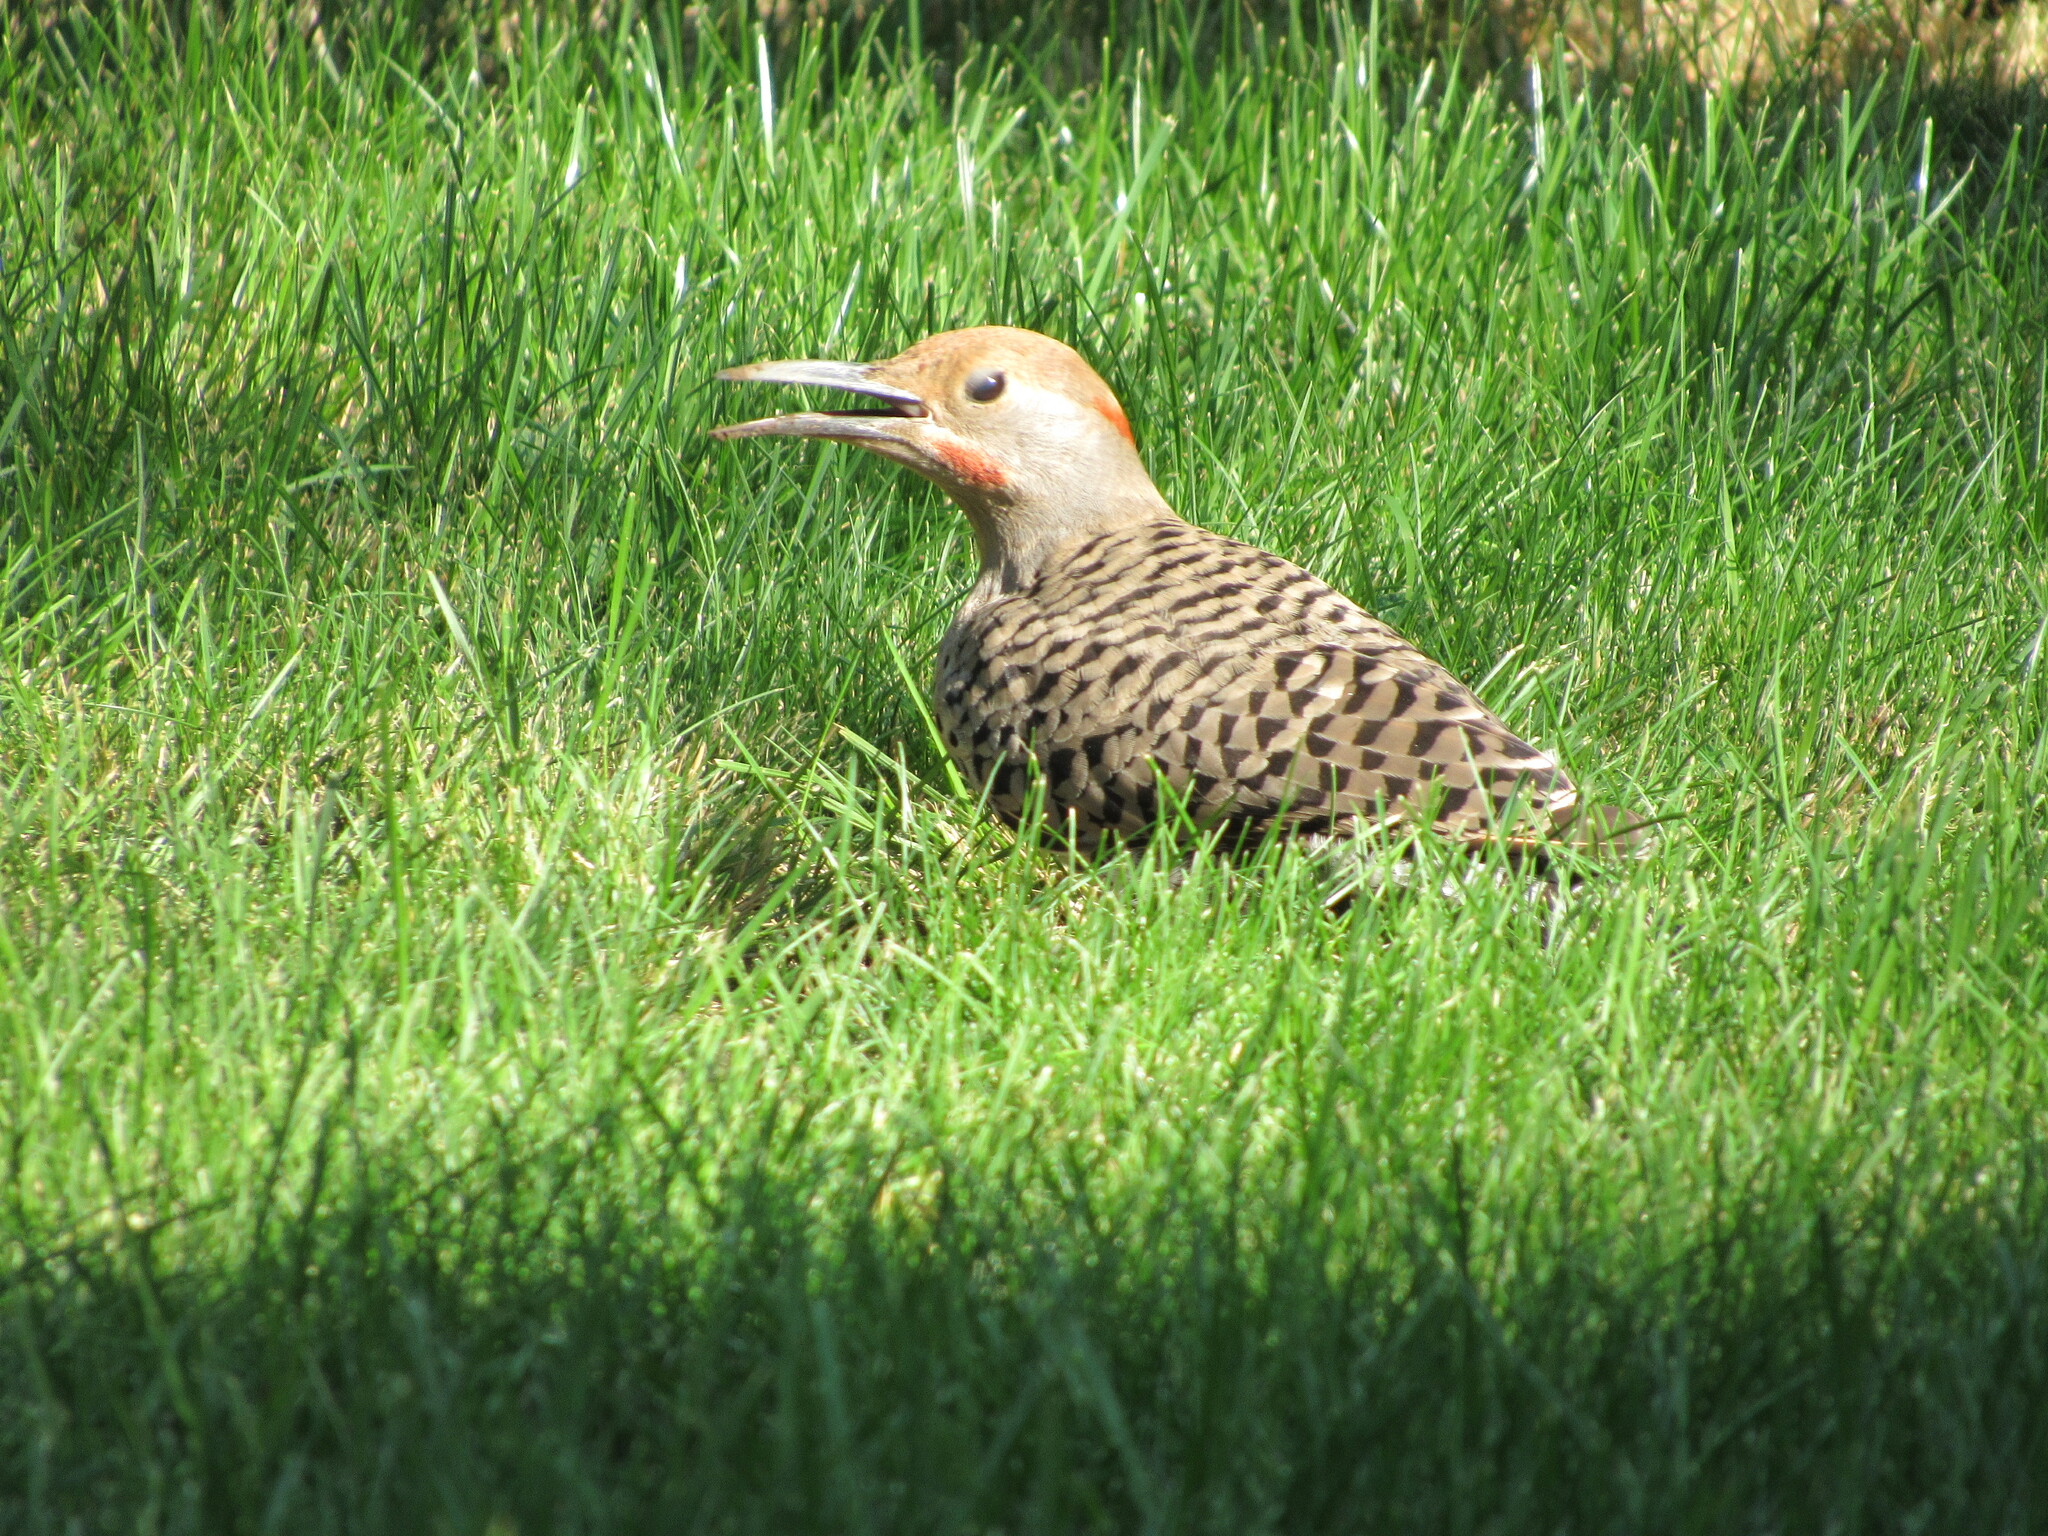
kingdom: Animalia
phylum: Chordata
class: Aves
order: Piciformes
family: Picidae
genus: Colaptes
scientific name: Colaptes auratus
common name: Northern flicker
